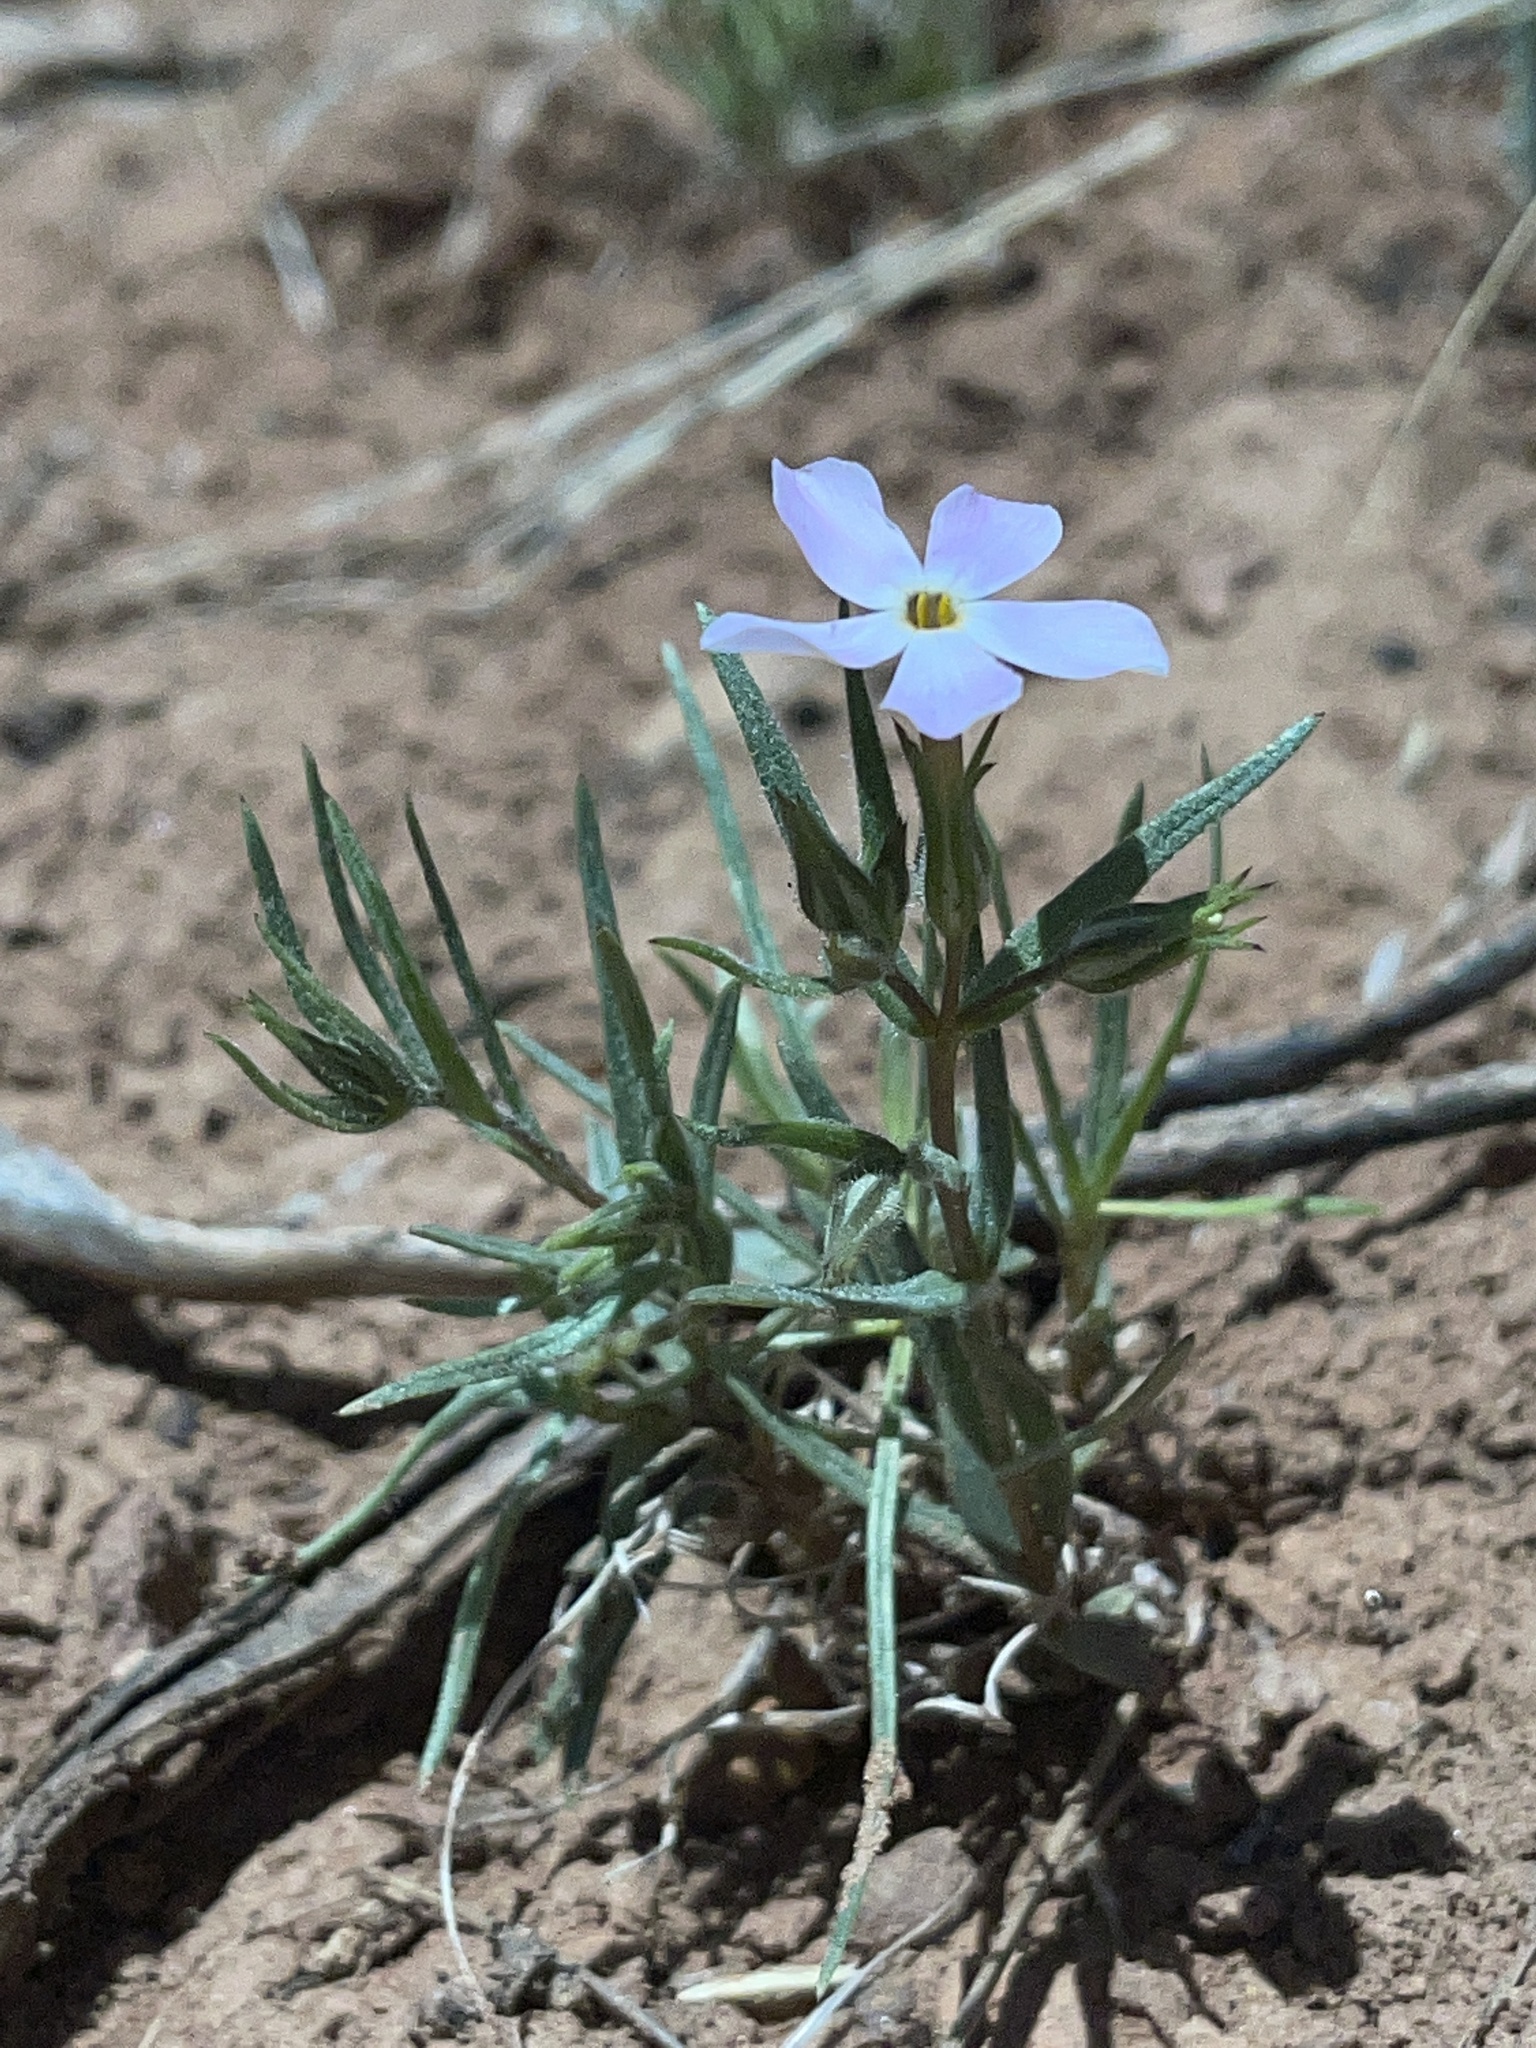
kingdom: Plantae
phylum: Tracheophyta
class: Magnoliopsida
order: Ericales
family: Polemoniaceae
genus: Phlox
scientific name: Phlox longifolia
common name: Longleaf phlox
